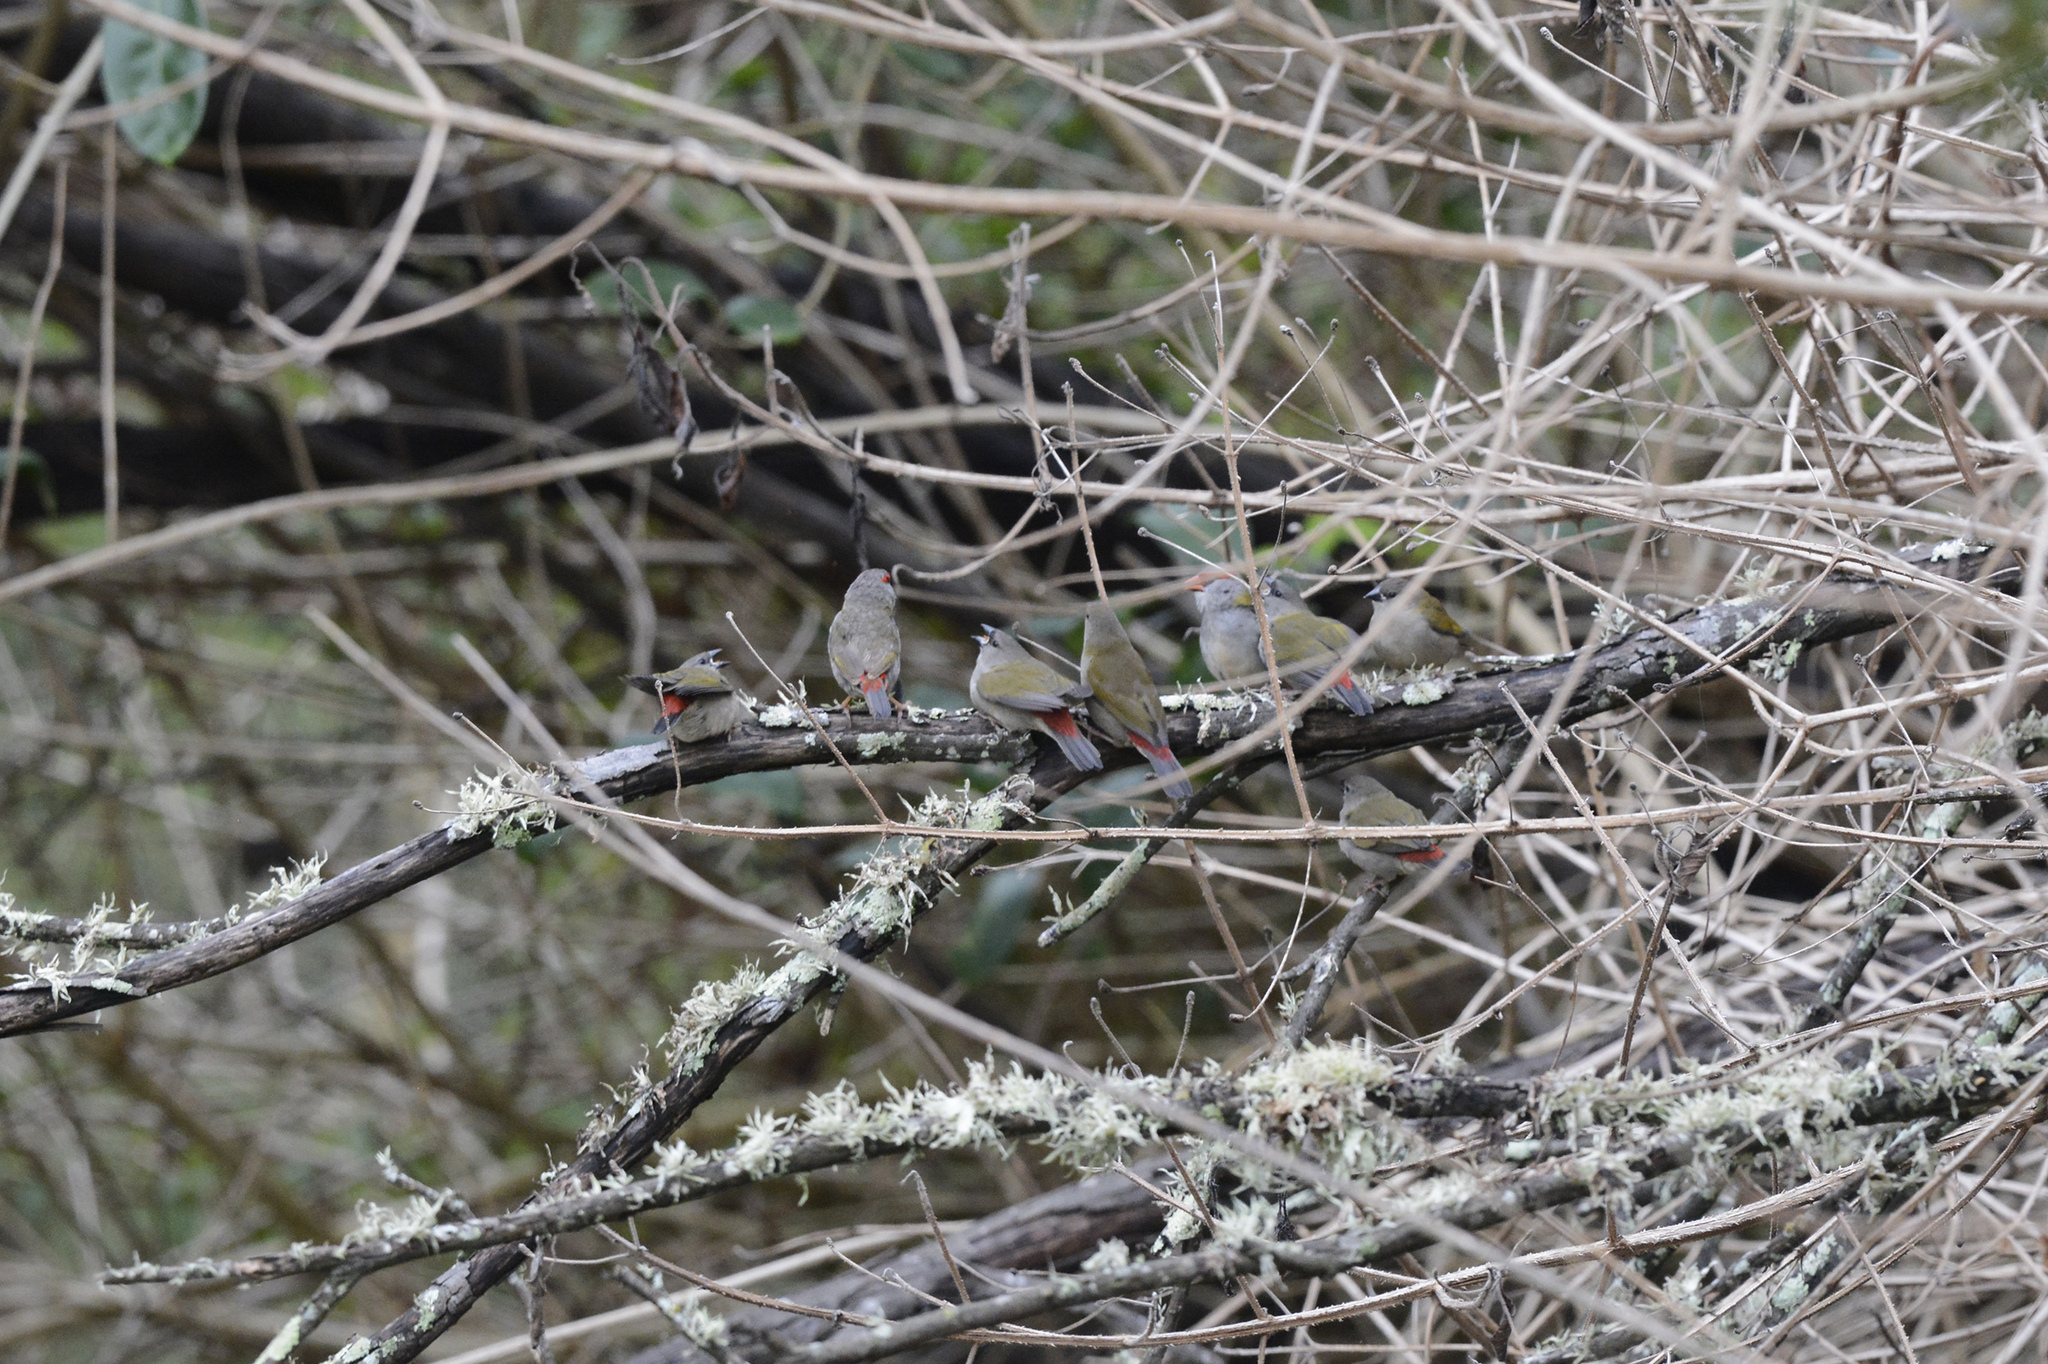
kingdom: Animalia
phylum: Chordata
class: Aves
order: Passeriformes
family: Estrildidae
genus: Neochmia
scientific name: Neochmia temporalis
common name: Red-browed finch
